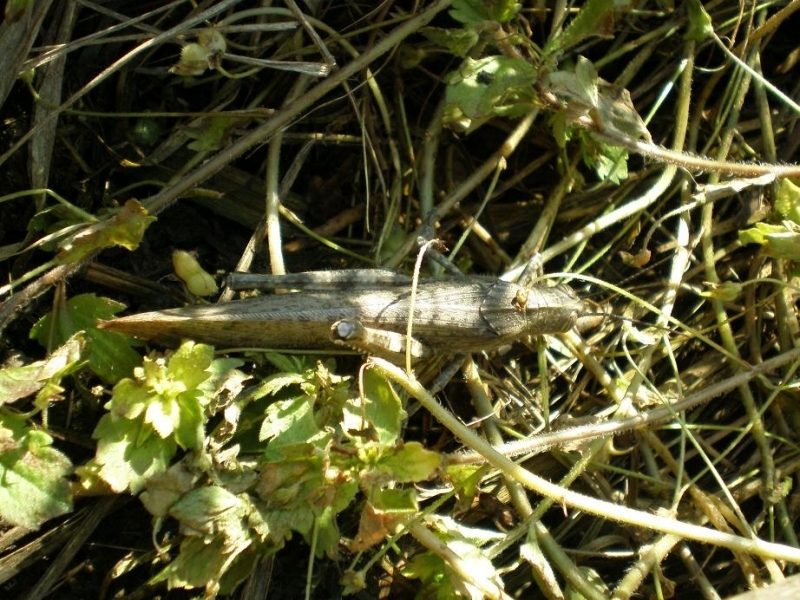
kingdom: Animalia
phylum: Arthropoda
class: Insecta
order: Orthoptera
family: Acrididae
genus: Anacridium
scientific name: Anacridium aegyptium
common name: Egyptian grasshopper
